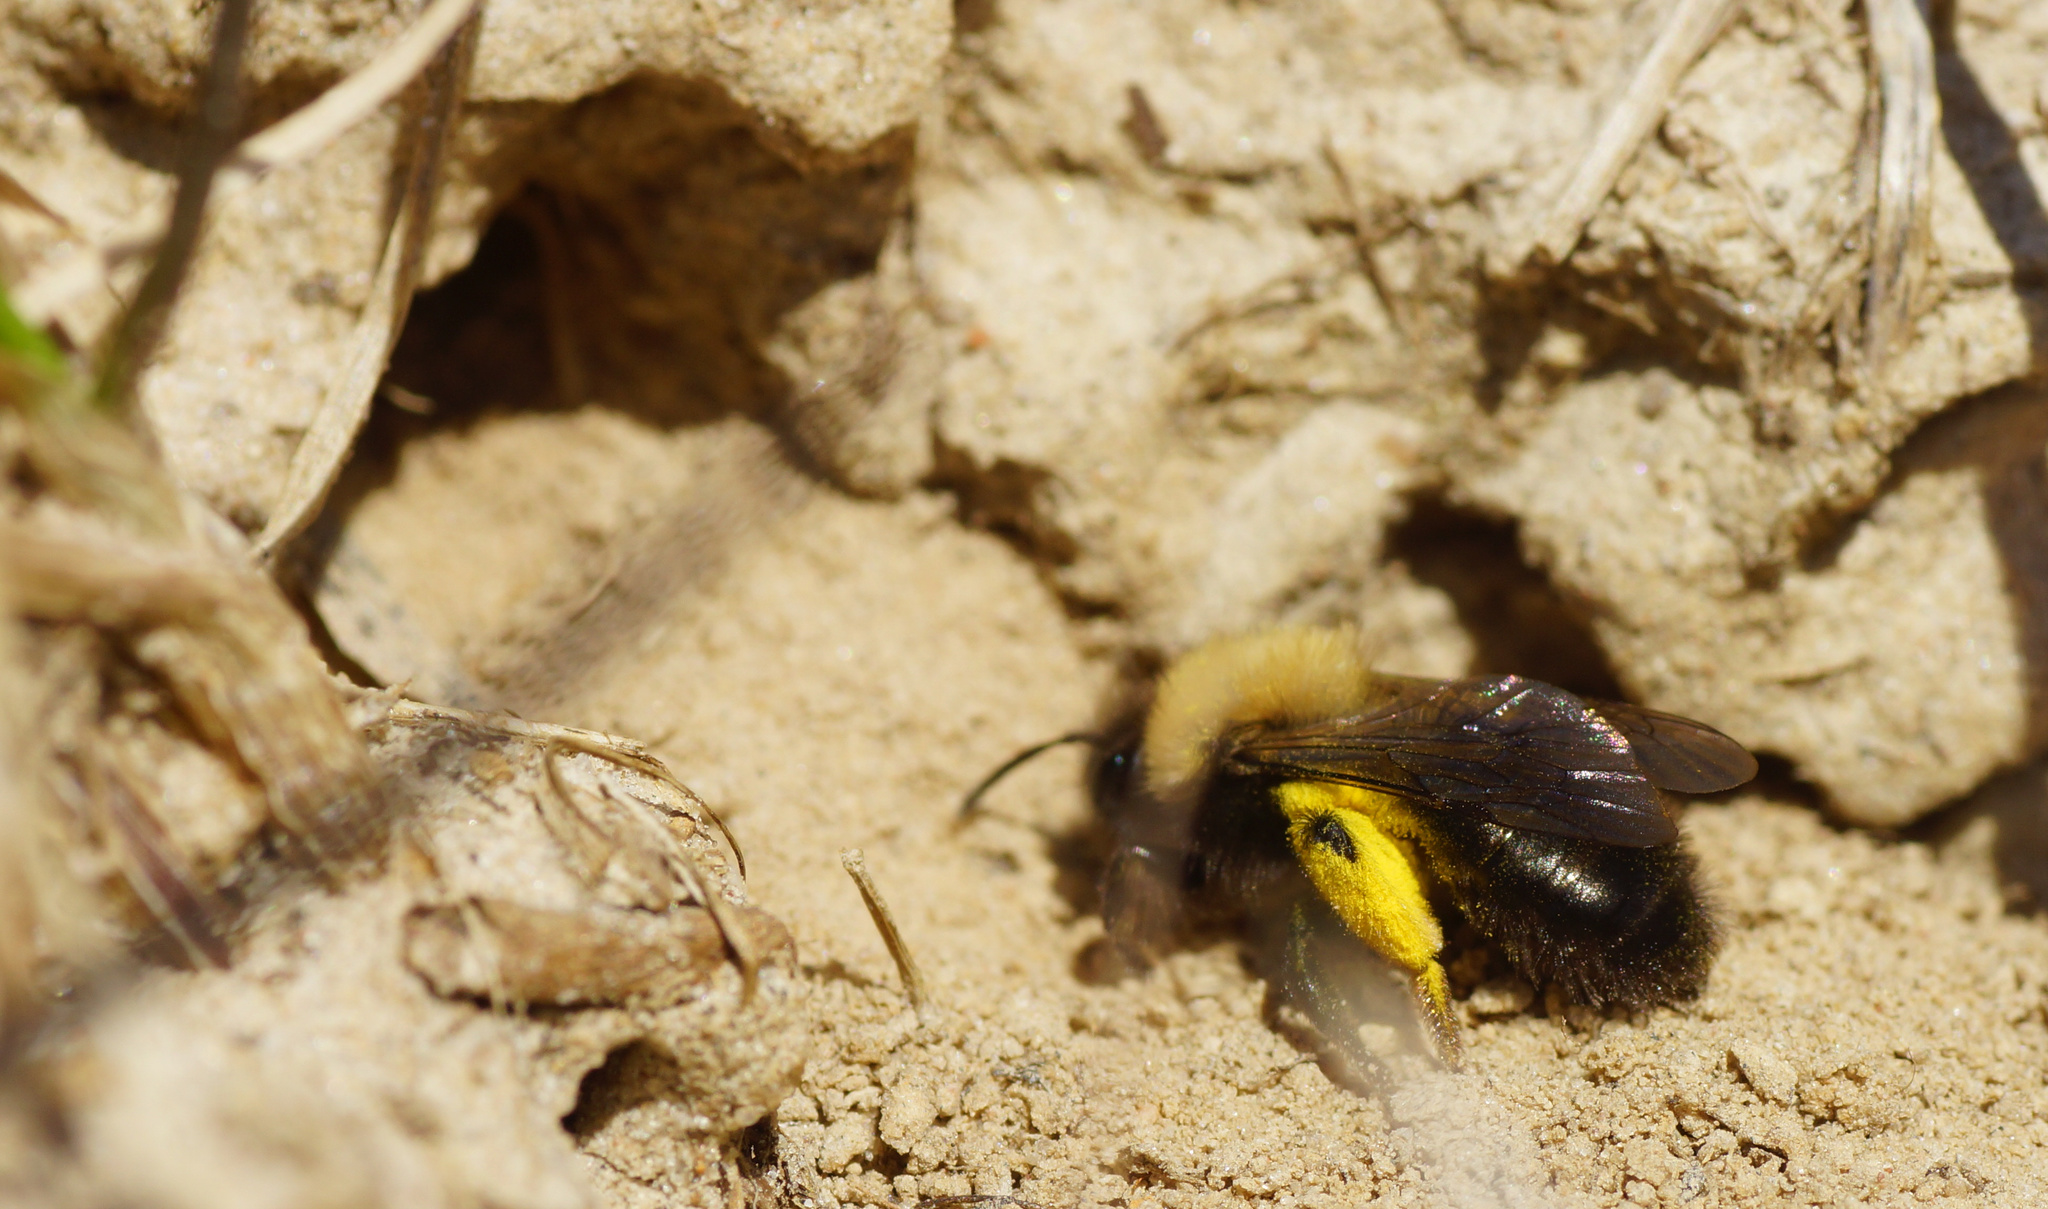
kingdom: Animalia
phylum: Arthropoda
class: Insecta
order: Hymenoptera
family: Andrenidae
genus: Andrena
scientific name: Andrena clarkella
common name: Clarke's mining bee
